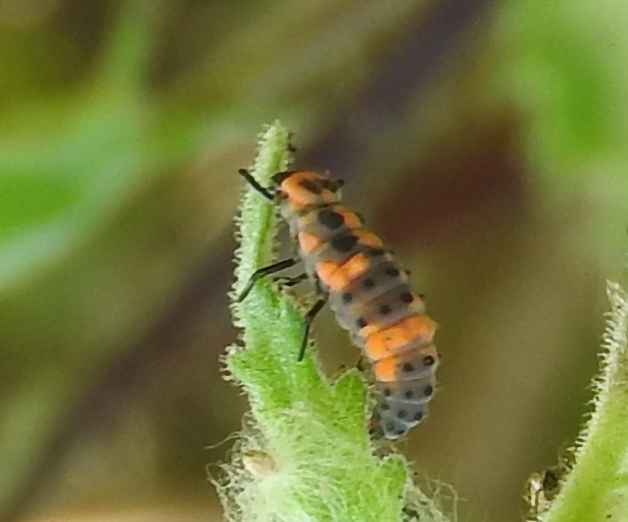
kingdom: Animalia
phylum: Arthropoda
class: Insecta
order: Coleoptera
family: Coccinellidae
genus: Coccinellina
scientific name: Coccinellina
